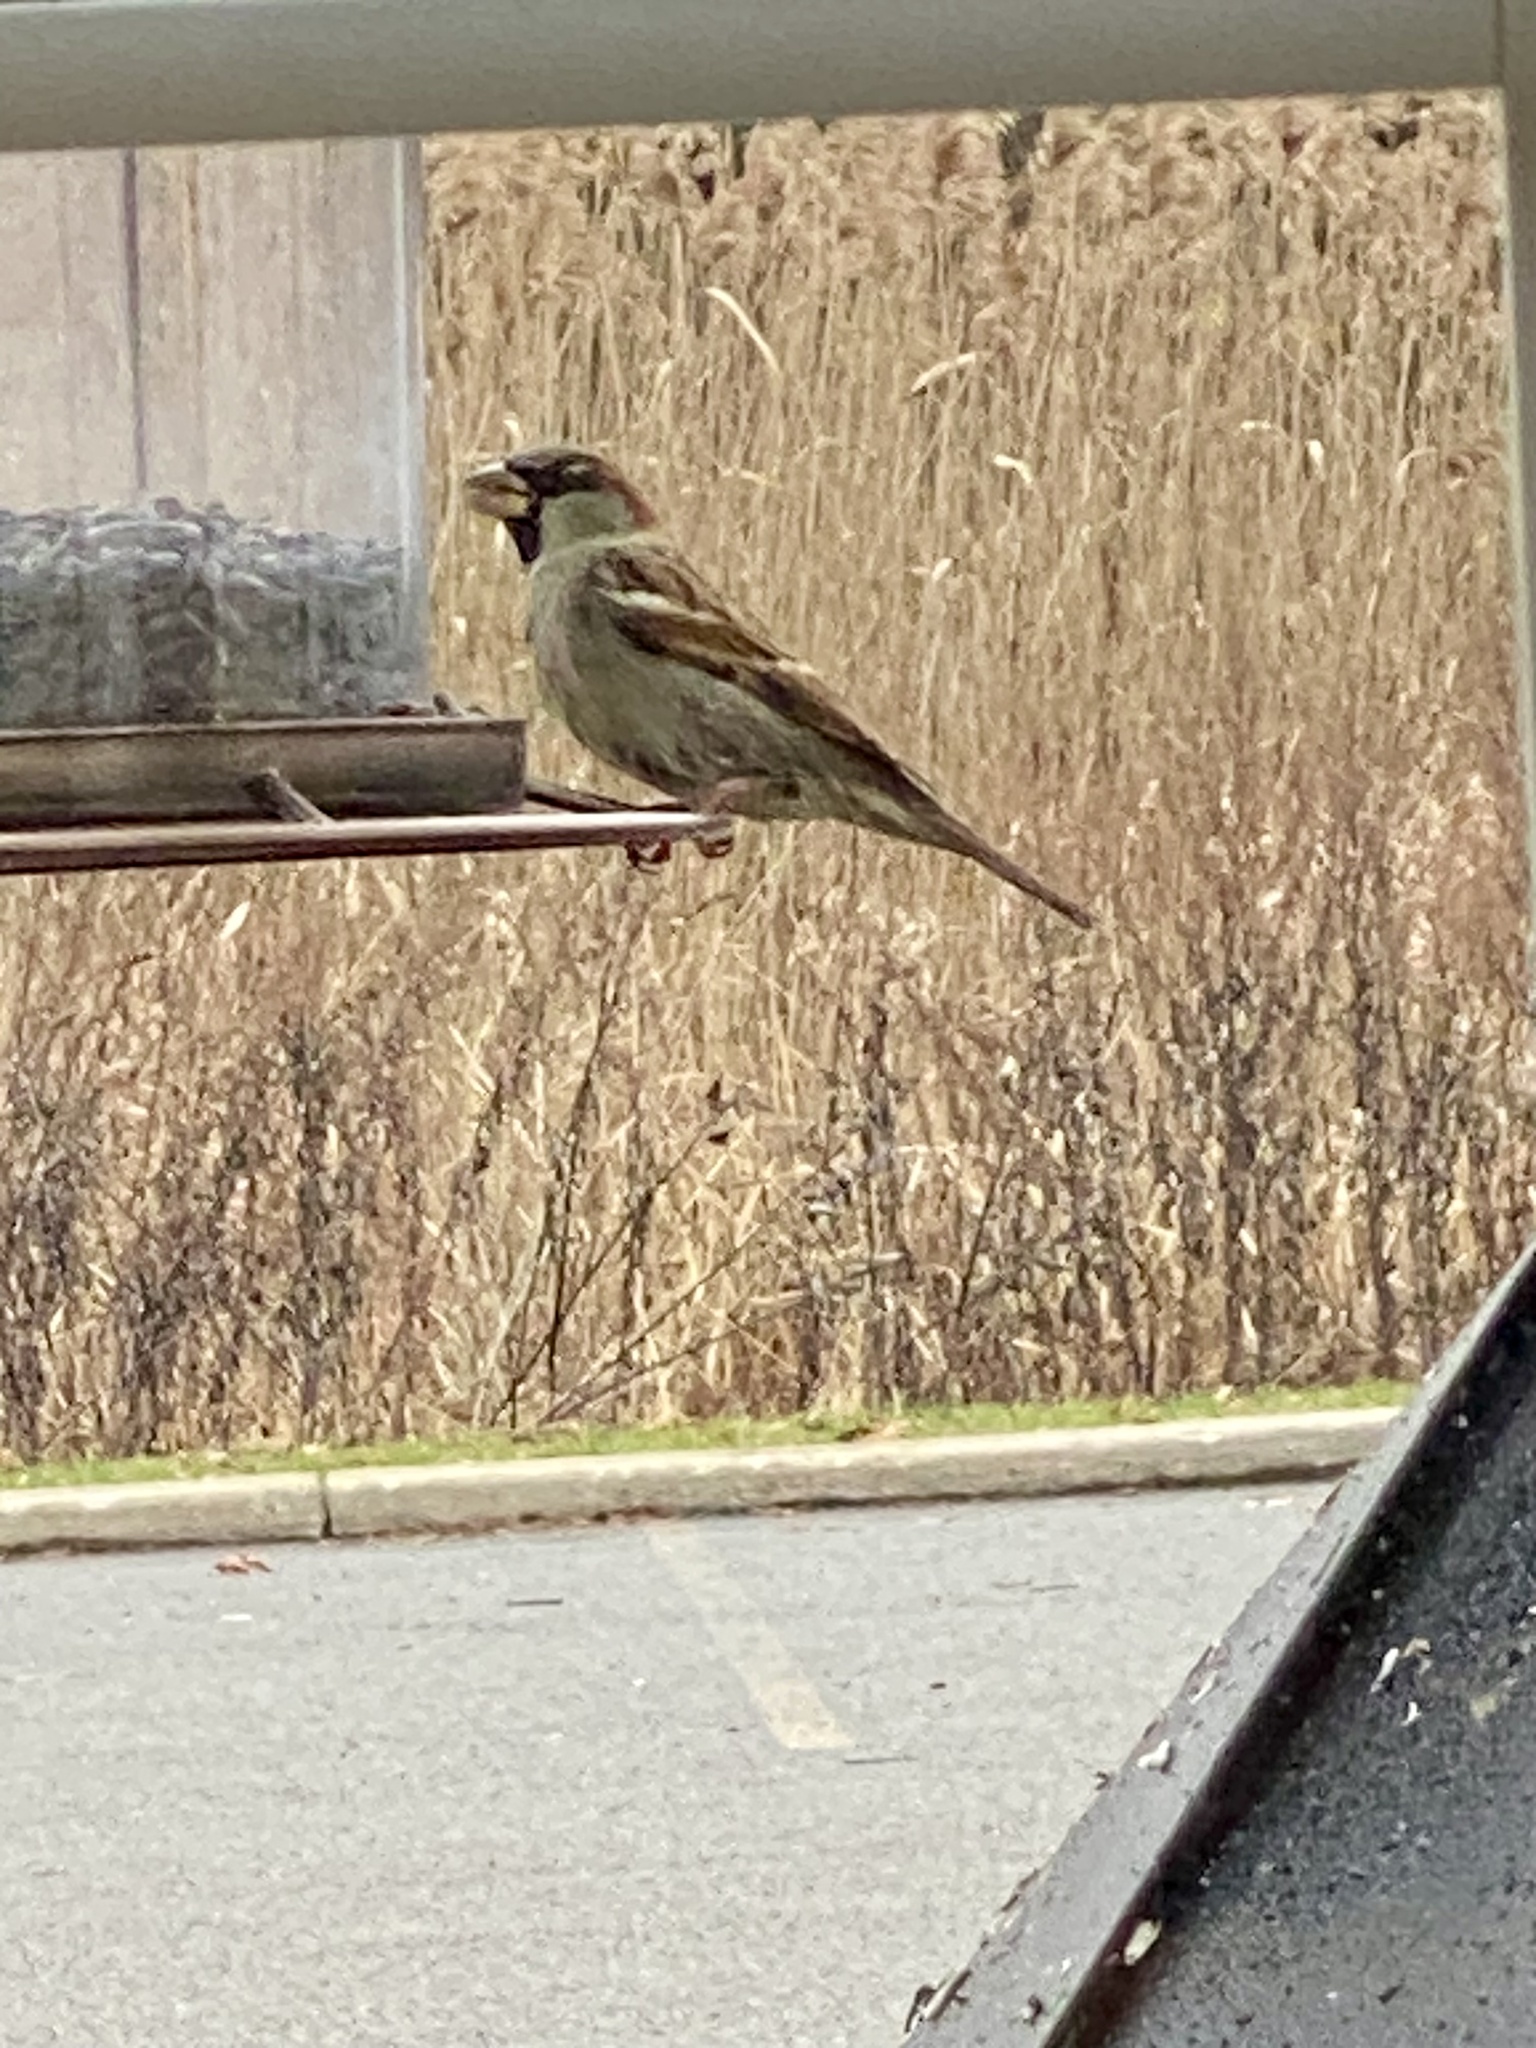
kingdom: Animalia
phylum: Chordata
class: Aves
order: Passeriformes
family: Passeridae
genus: Passer
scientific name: Passer domesticus
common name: House sparrow
